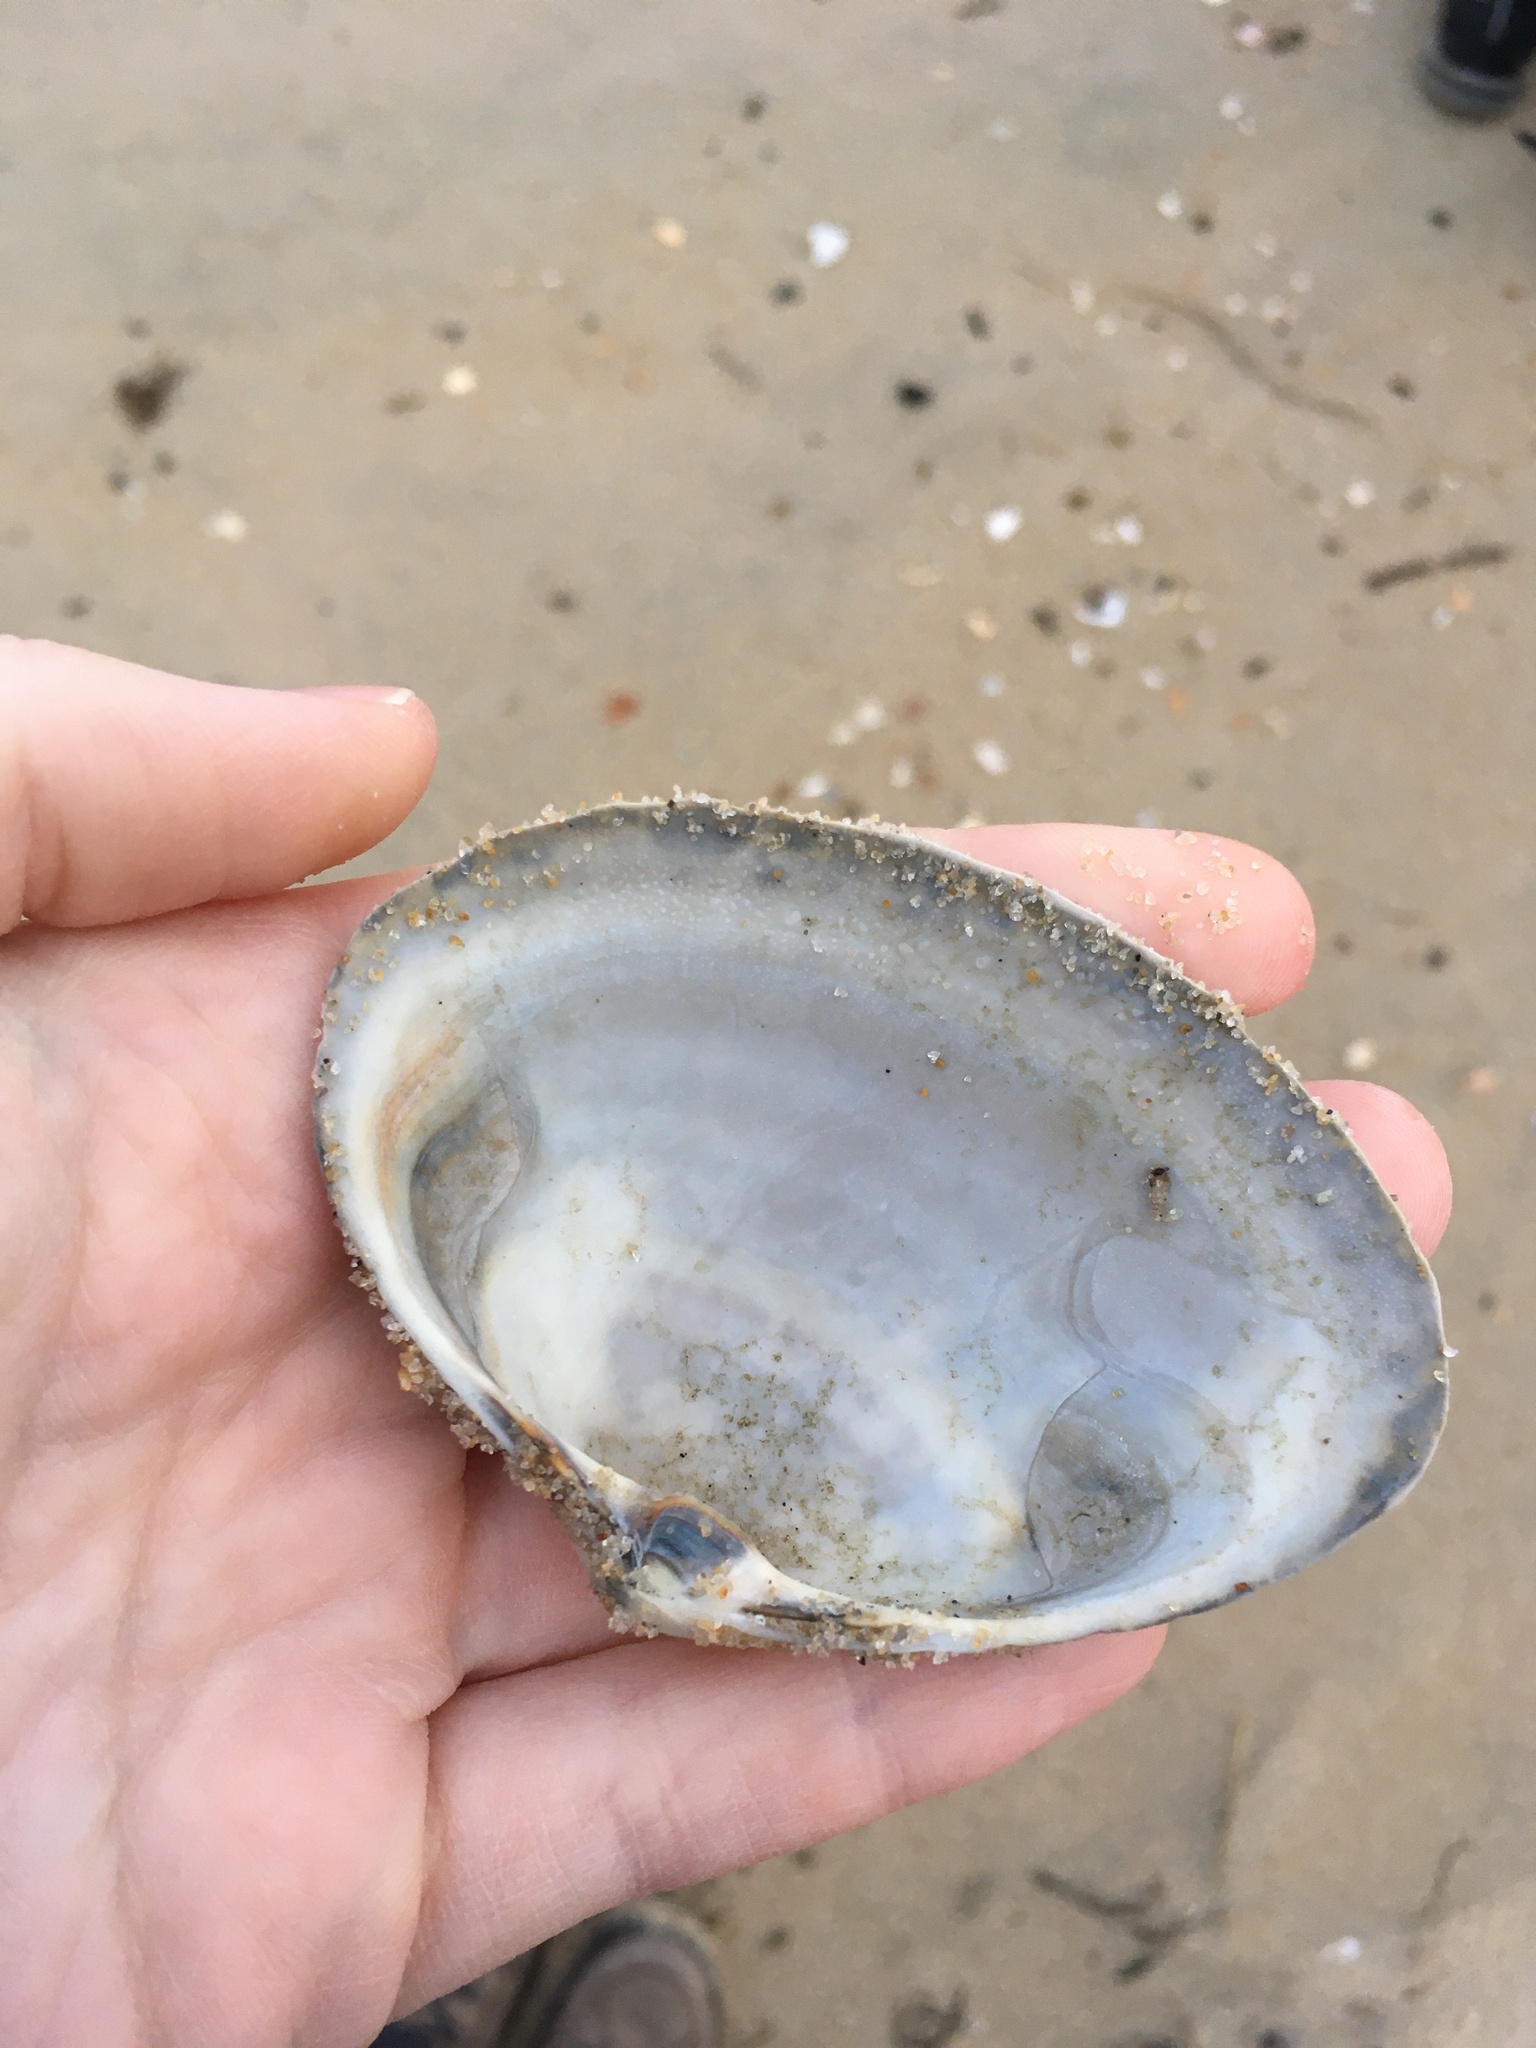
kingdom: Animalia
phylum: Mollusca
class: Bivalvia
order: Venerida
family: Mactridae
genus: Spisula
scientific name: Spisula solidissima
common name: Atlantic surf clam
